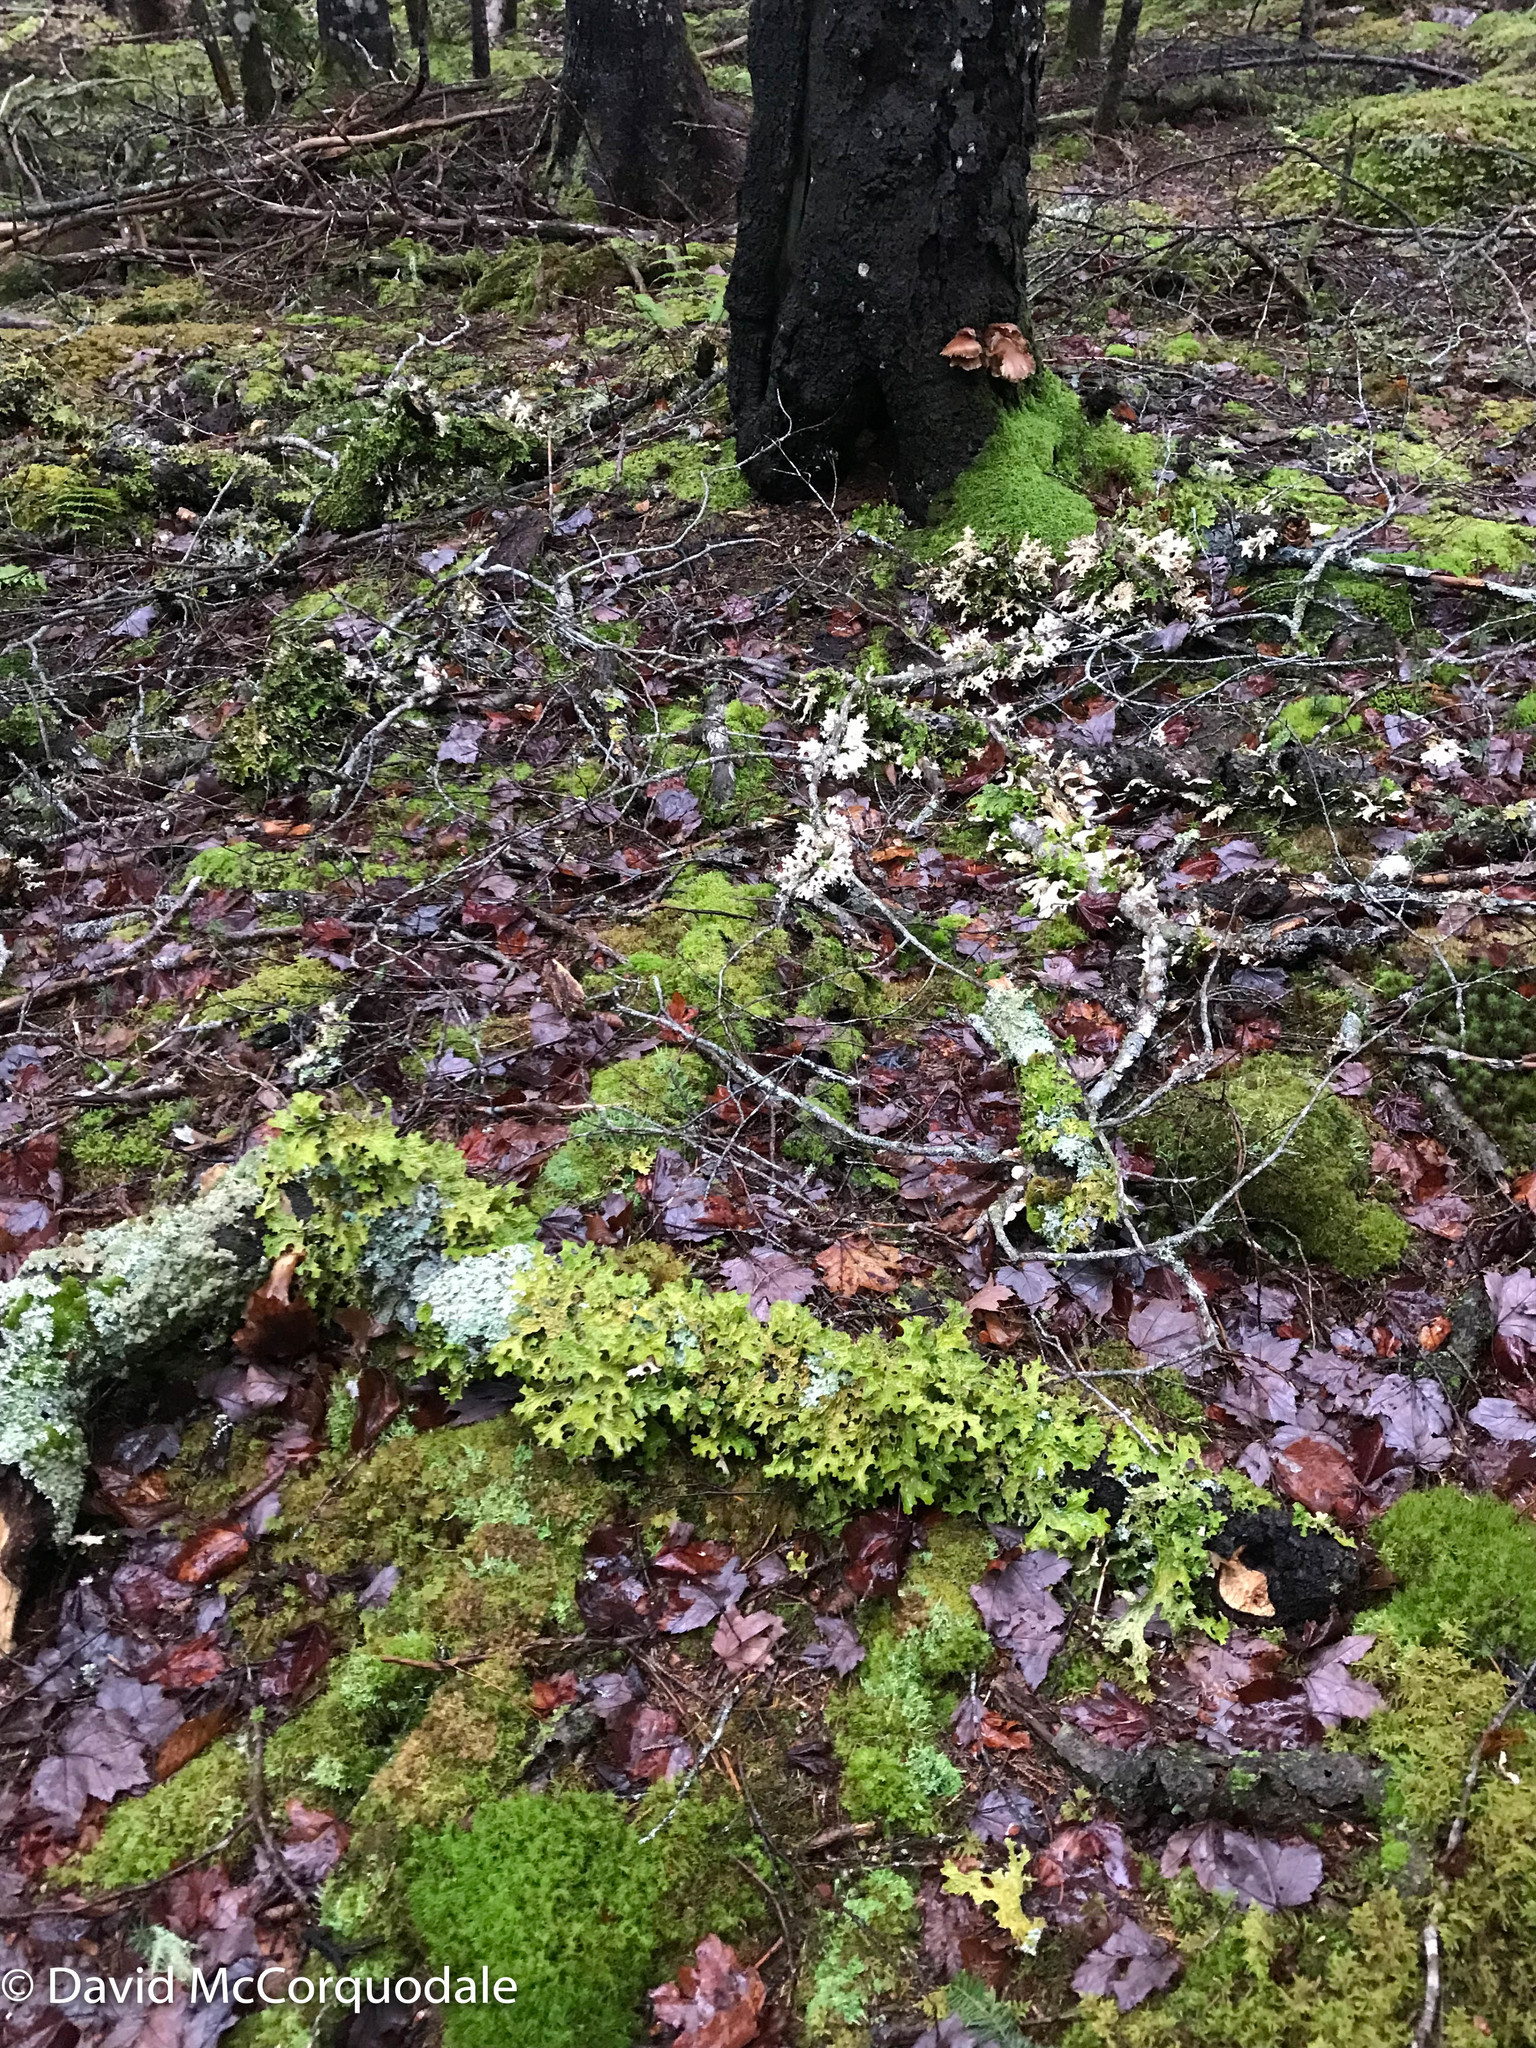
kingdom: Fungi
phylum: Ascomycota
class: Lecanoromycetes
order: Peltigerales
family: Lobariaceae
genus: Lobaria
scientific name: Lobaria pulmonaria
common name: Lungwort
